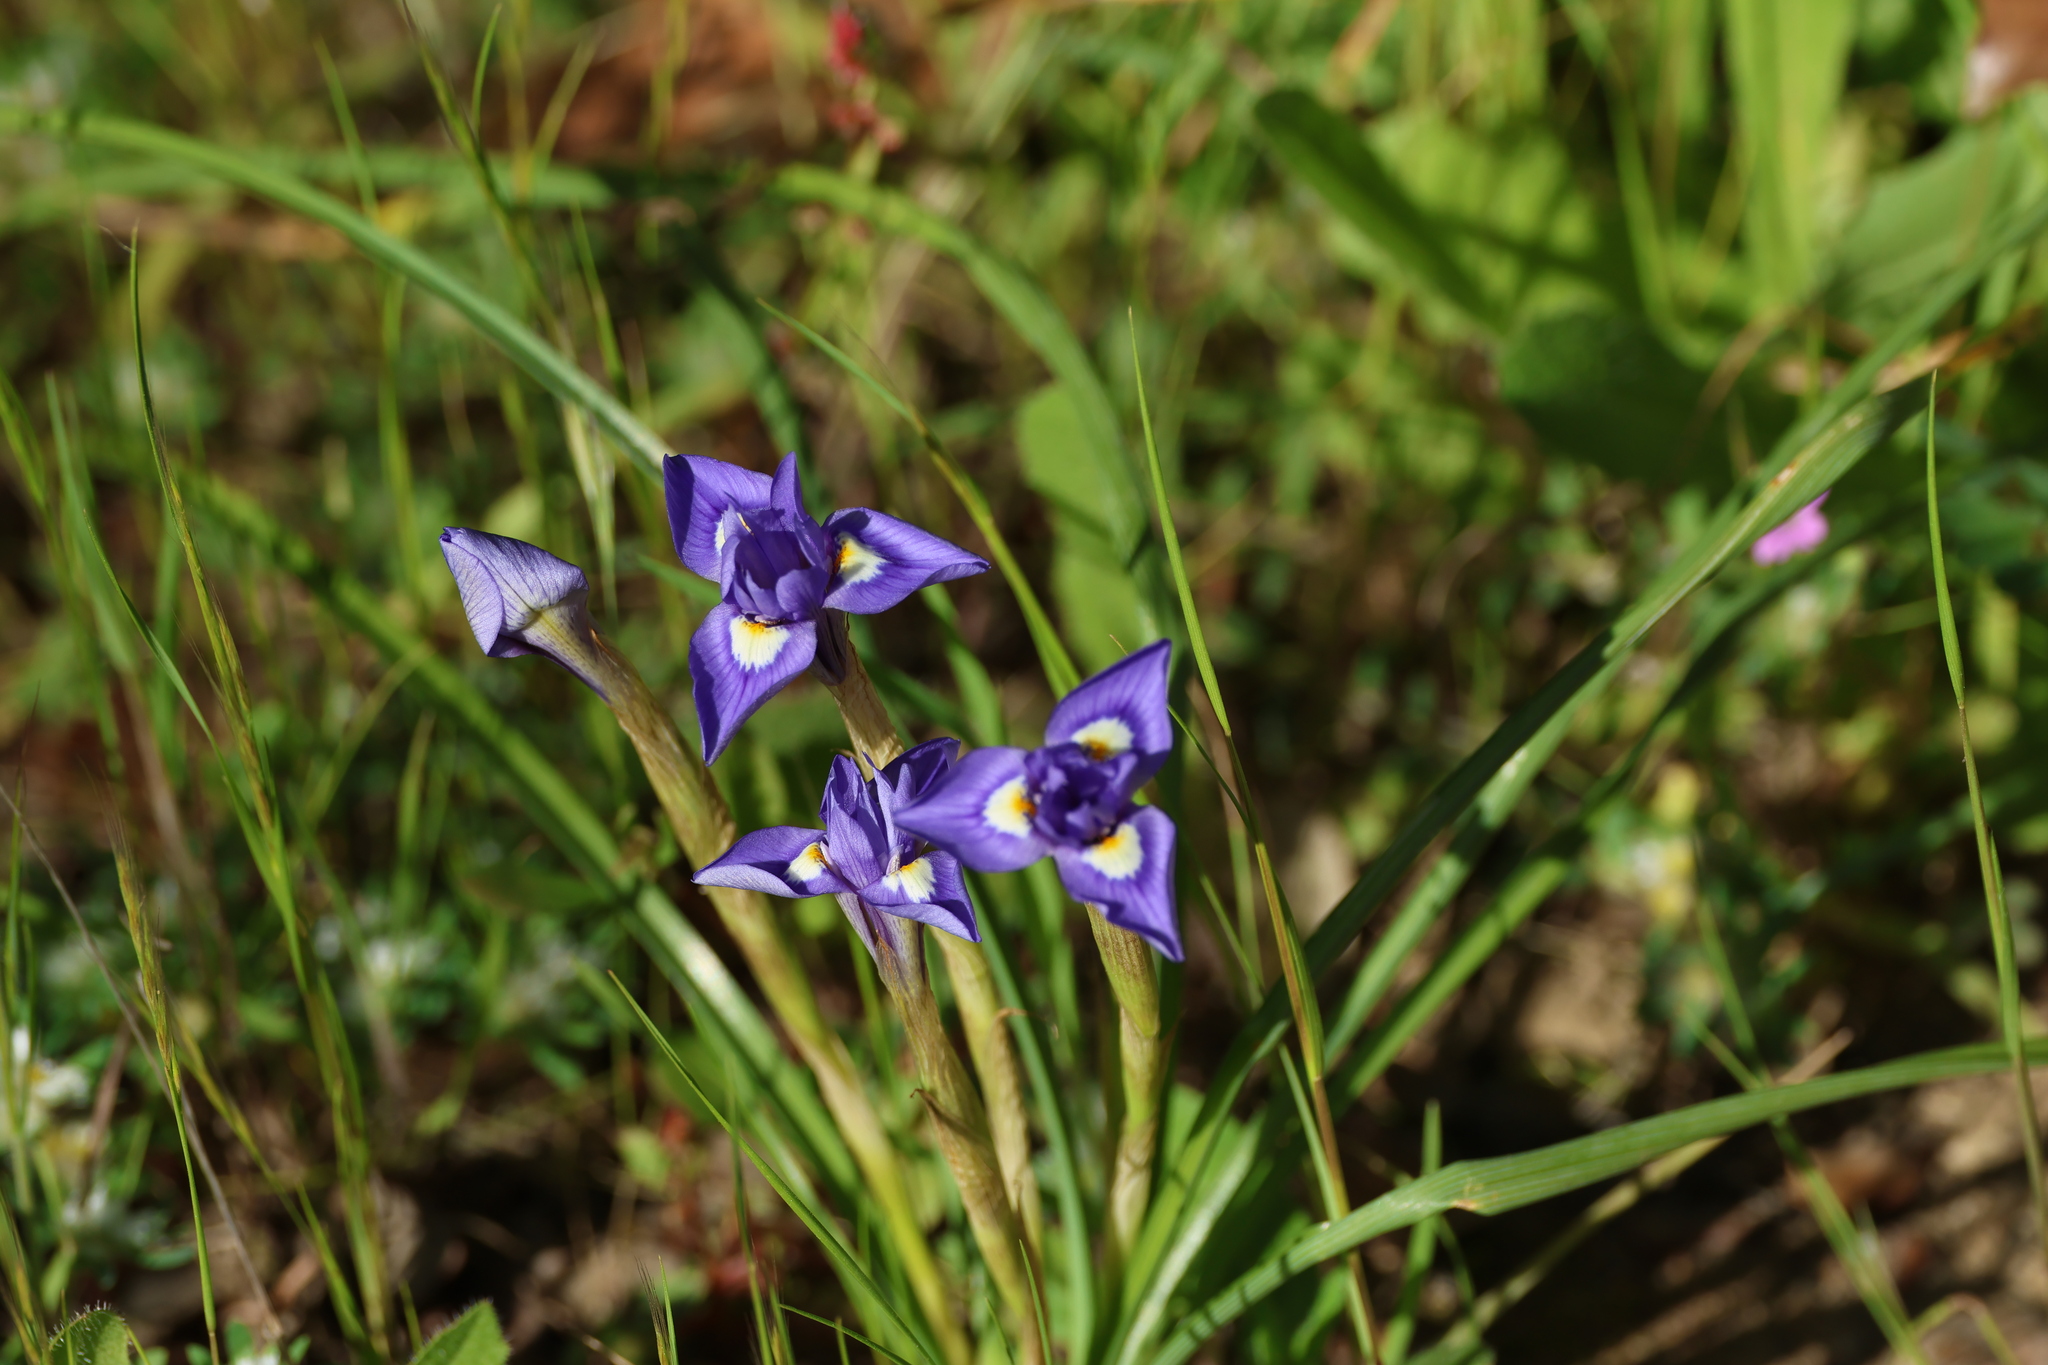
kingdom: Plantae
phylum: Tracheophyta
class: Liliopsida
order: Asparagales
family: Iridaceae
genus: Moraea
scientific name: Moraea sisyrinchium
